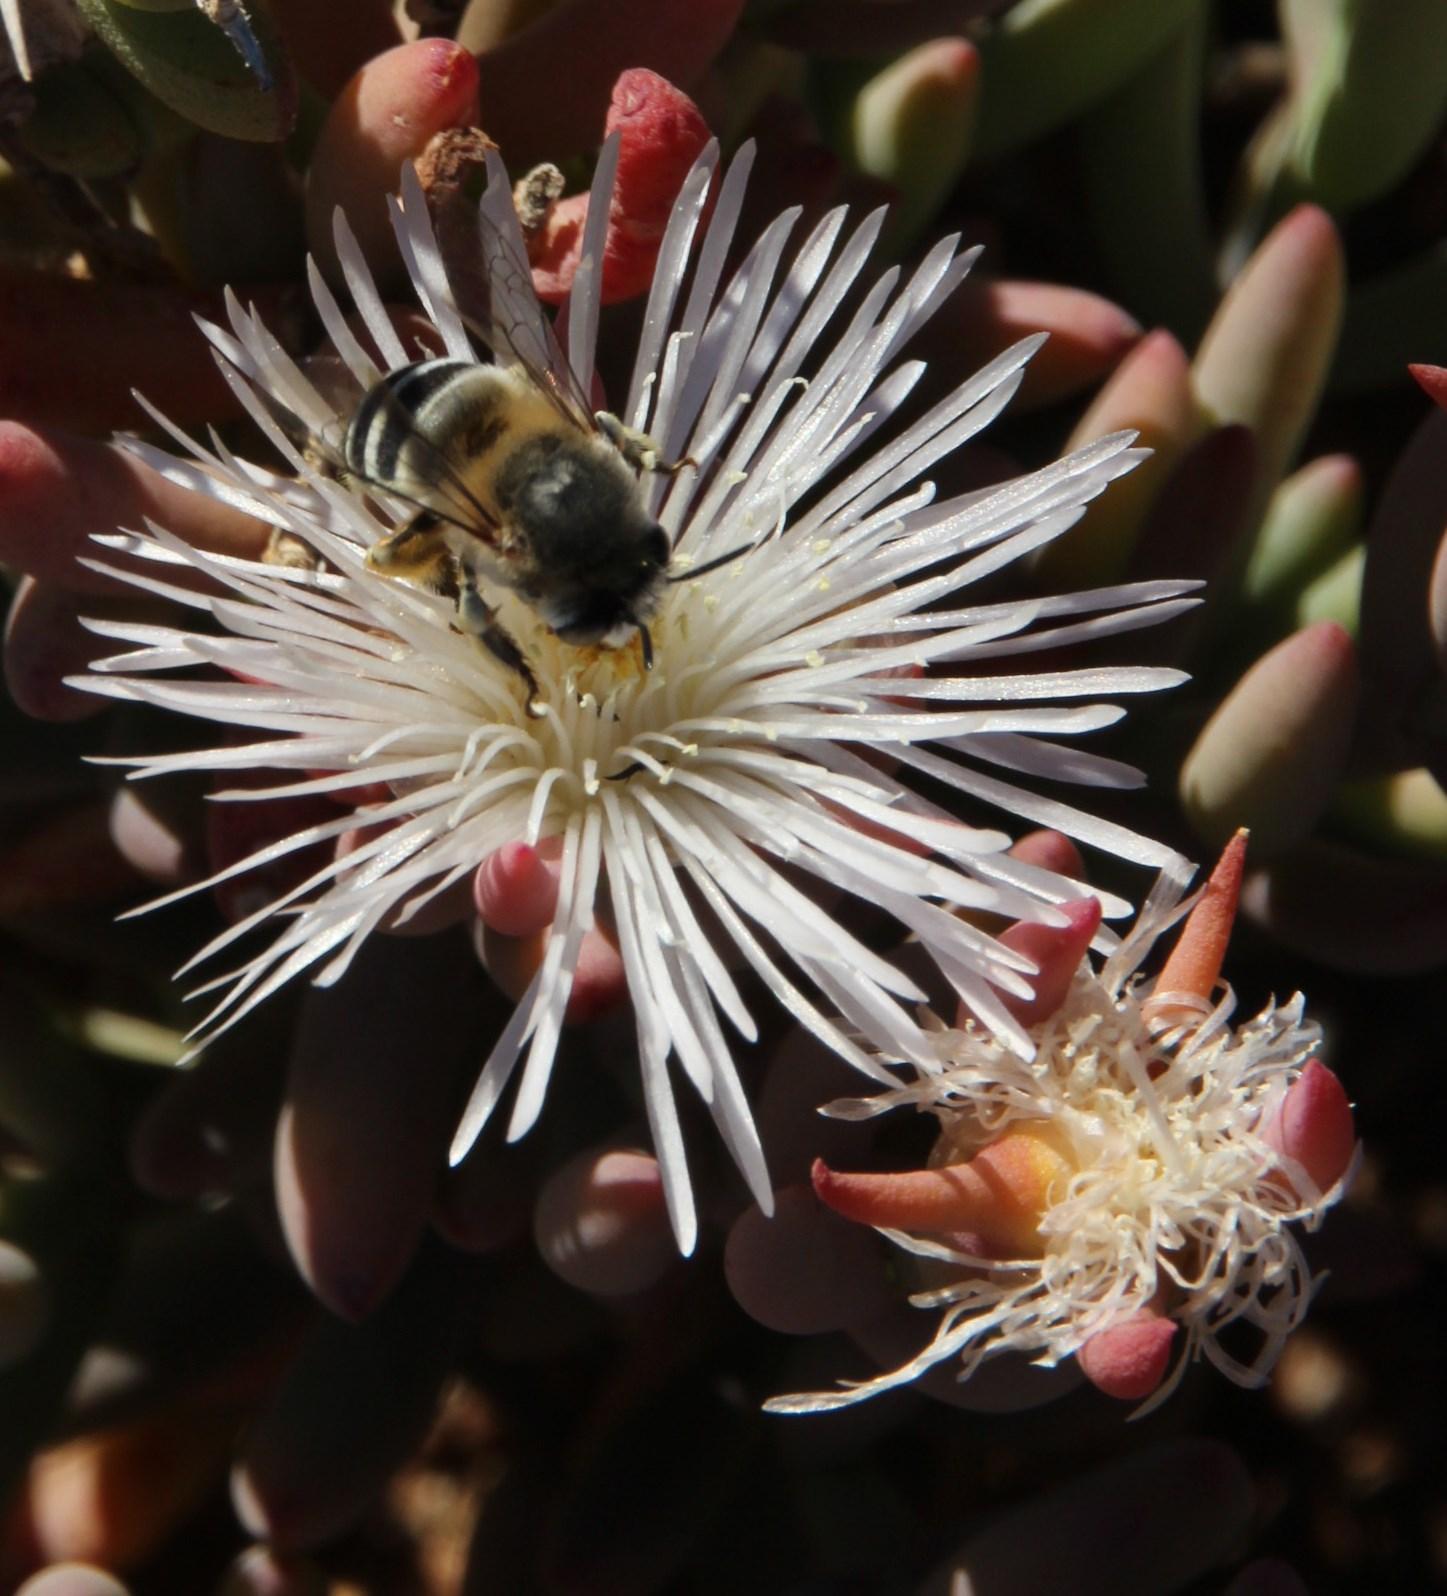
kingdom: Plantae
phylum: Tracheophyta
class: Magnoliopsida
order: Caryophyllales
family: Aizoaceae
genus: Mesembryanthemum
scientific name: Mesembryanthemum splendens
